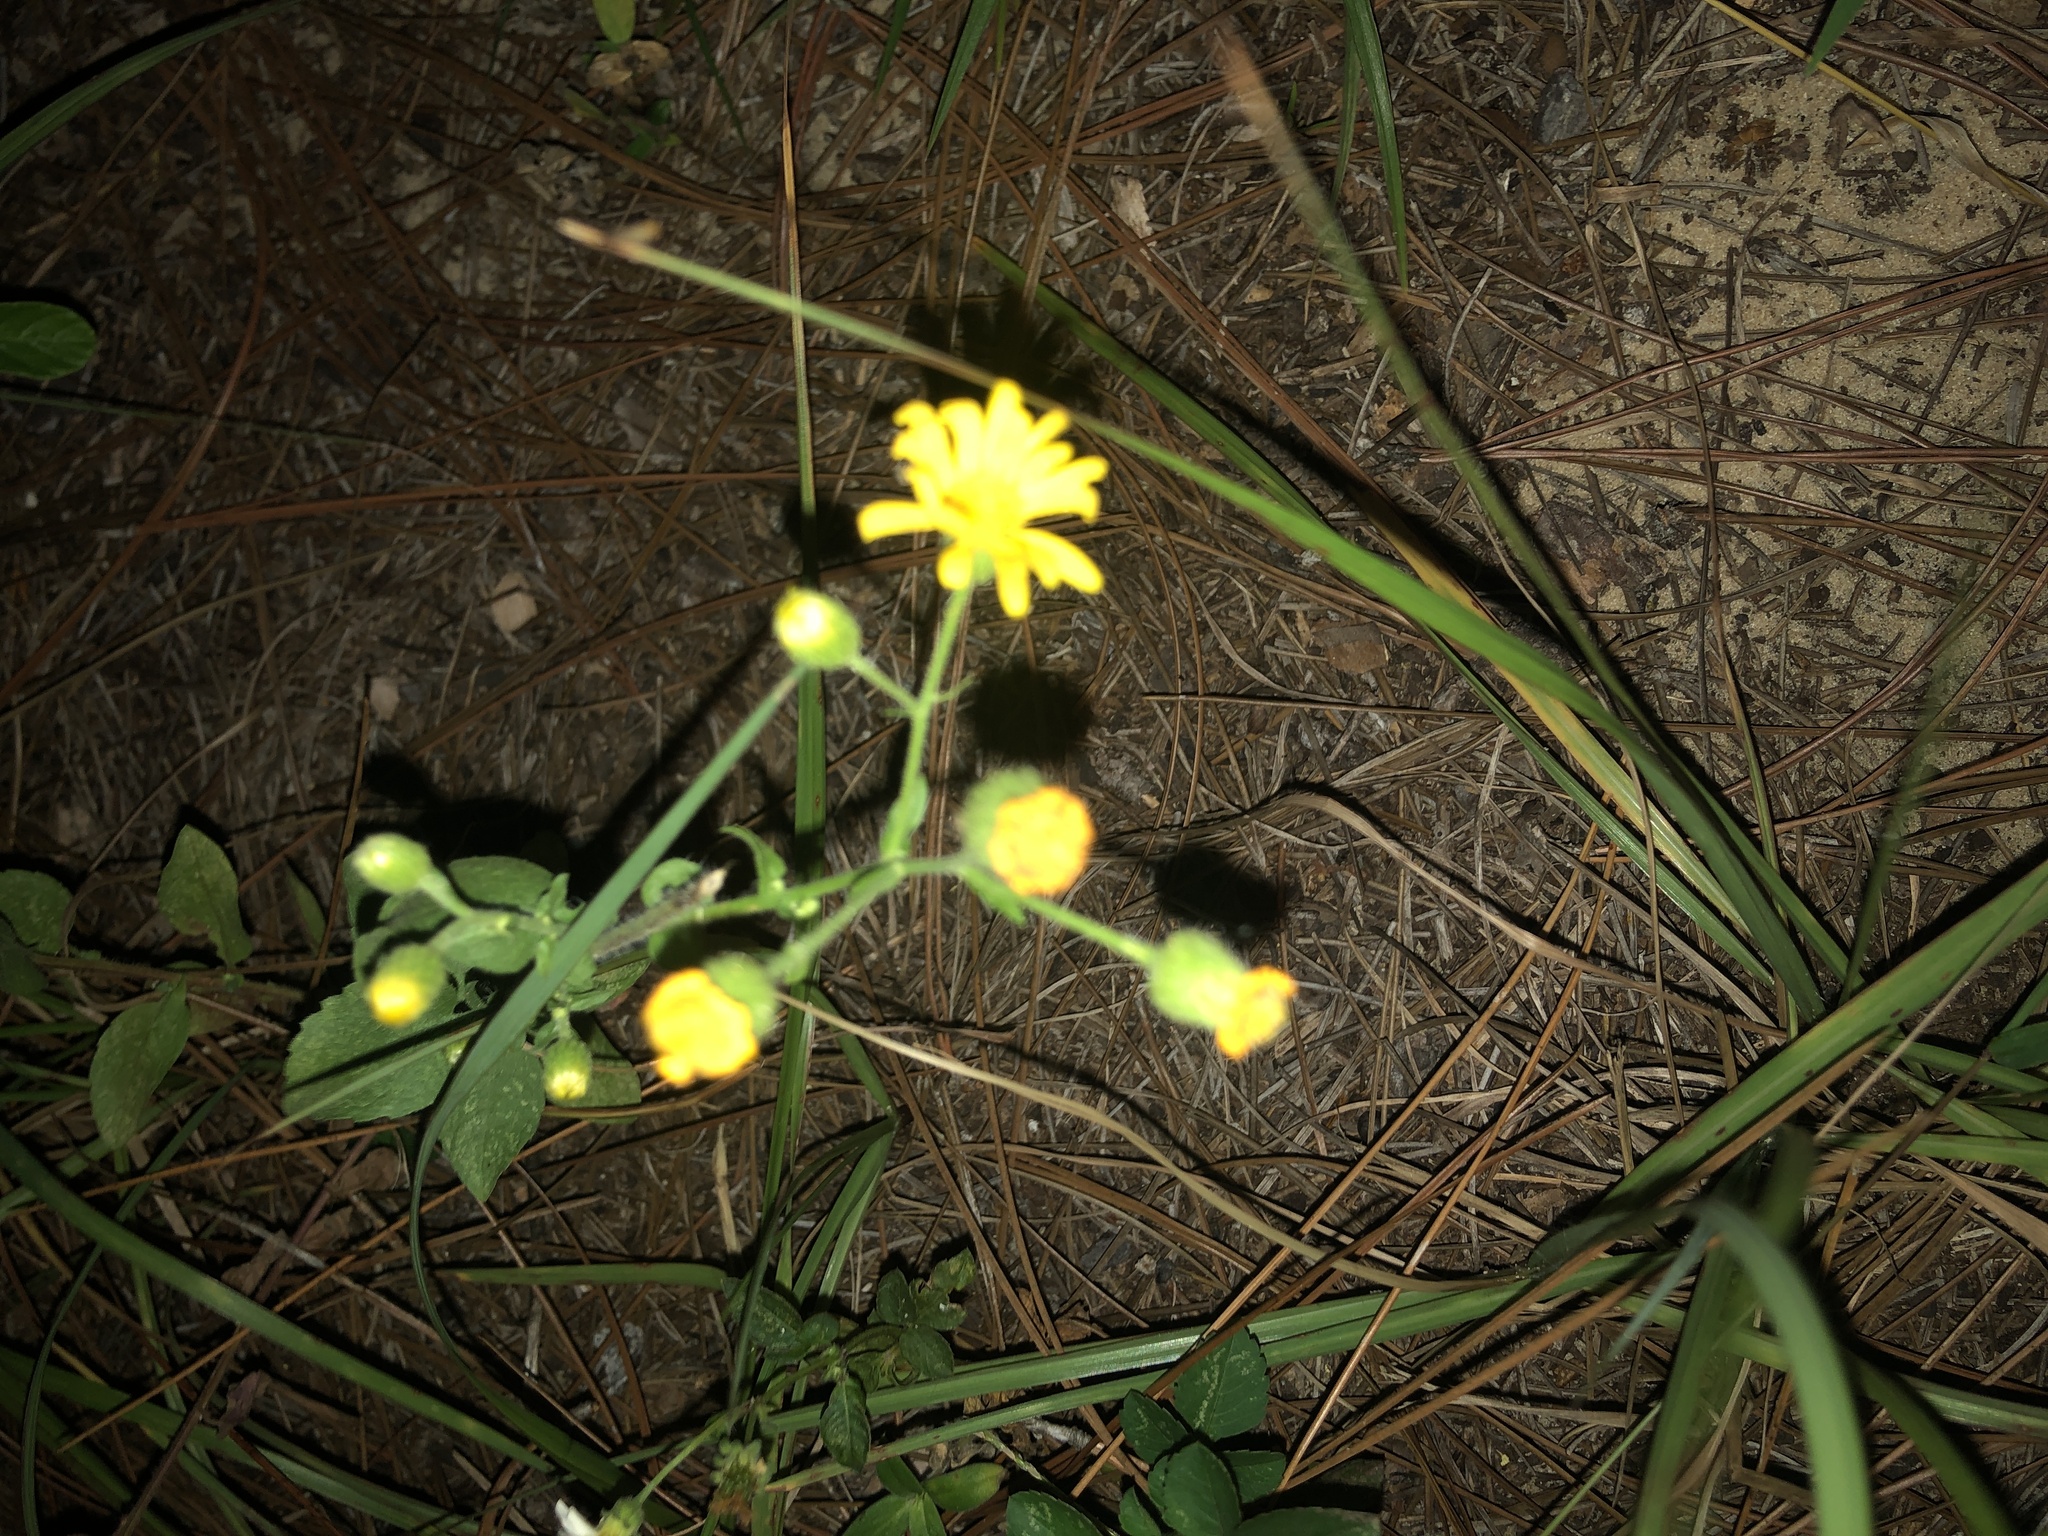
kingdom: Plantae
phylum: Tracheophyta
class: Magnoliopsida
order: Asterales
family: Asteraceae
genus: Heterotheca
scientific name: Heterotheca subaxillaris
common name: Camphorweed
